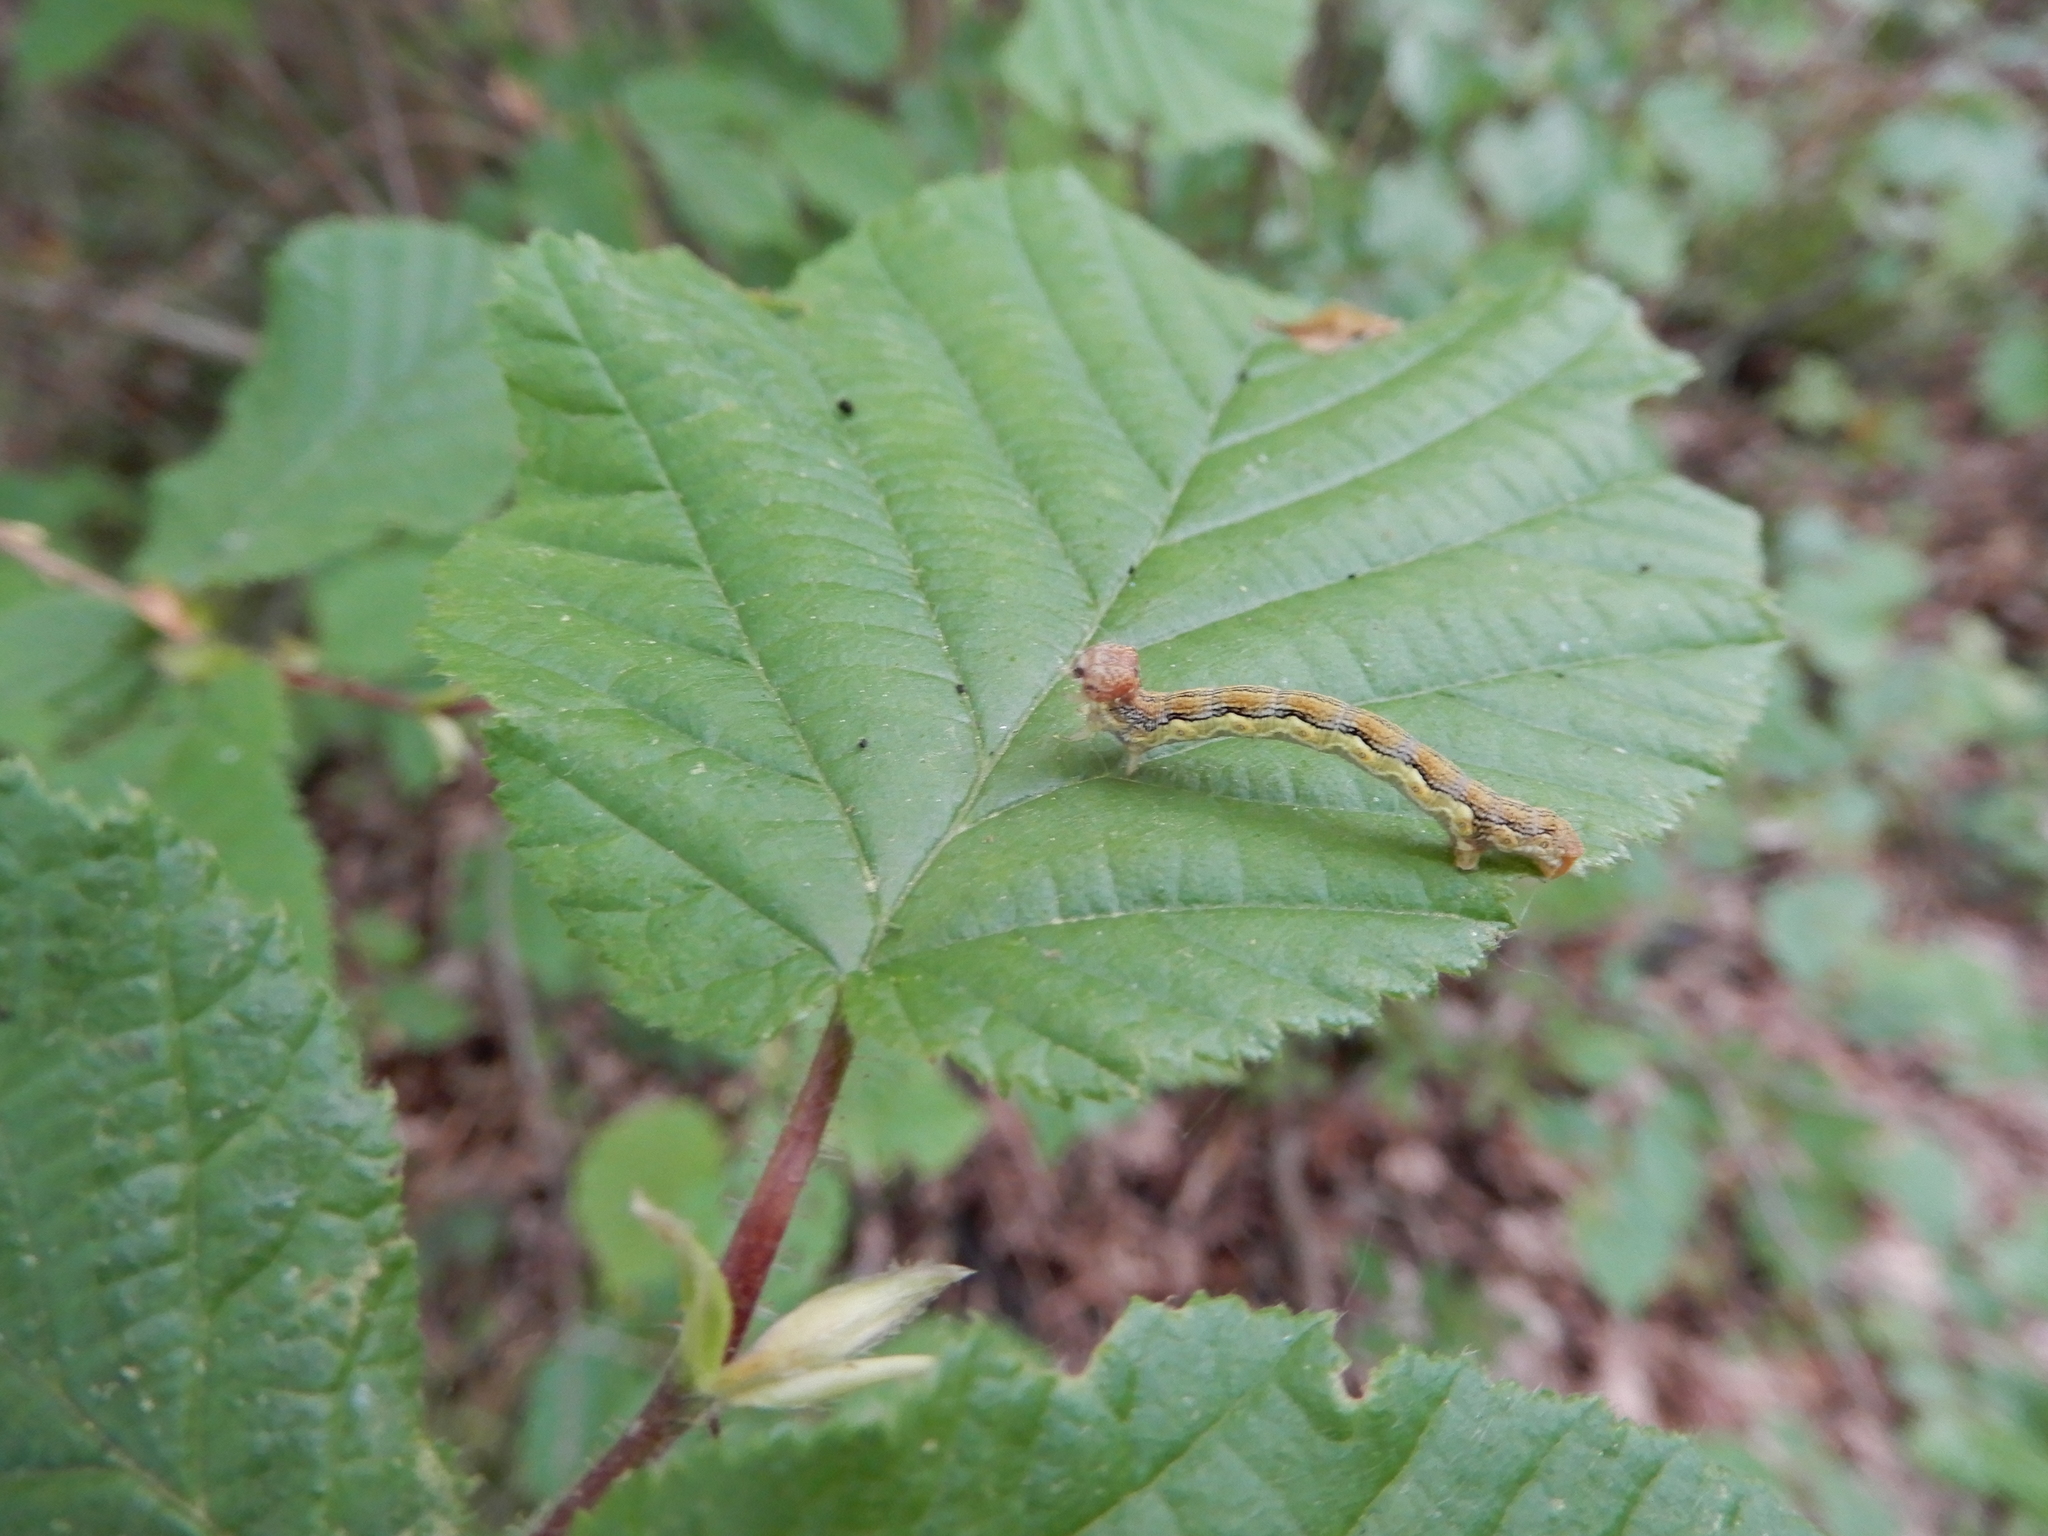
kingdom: Animalia
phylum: Arthropoda
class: Insecta
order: Lepidoptera
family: Geometridae
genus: Erannis
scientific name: Erannis defoliaria
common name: Mottled umber
